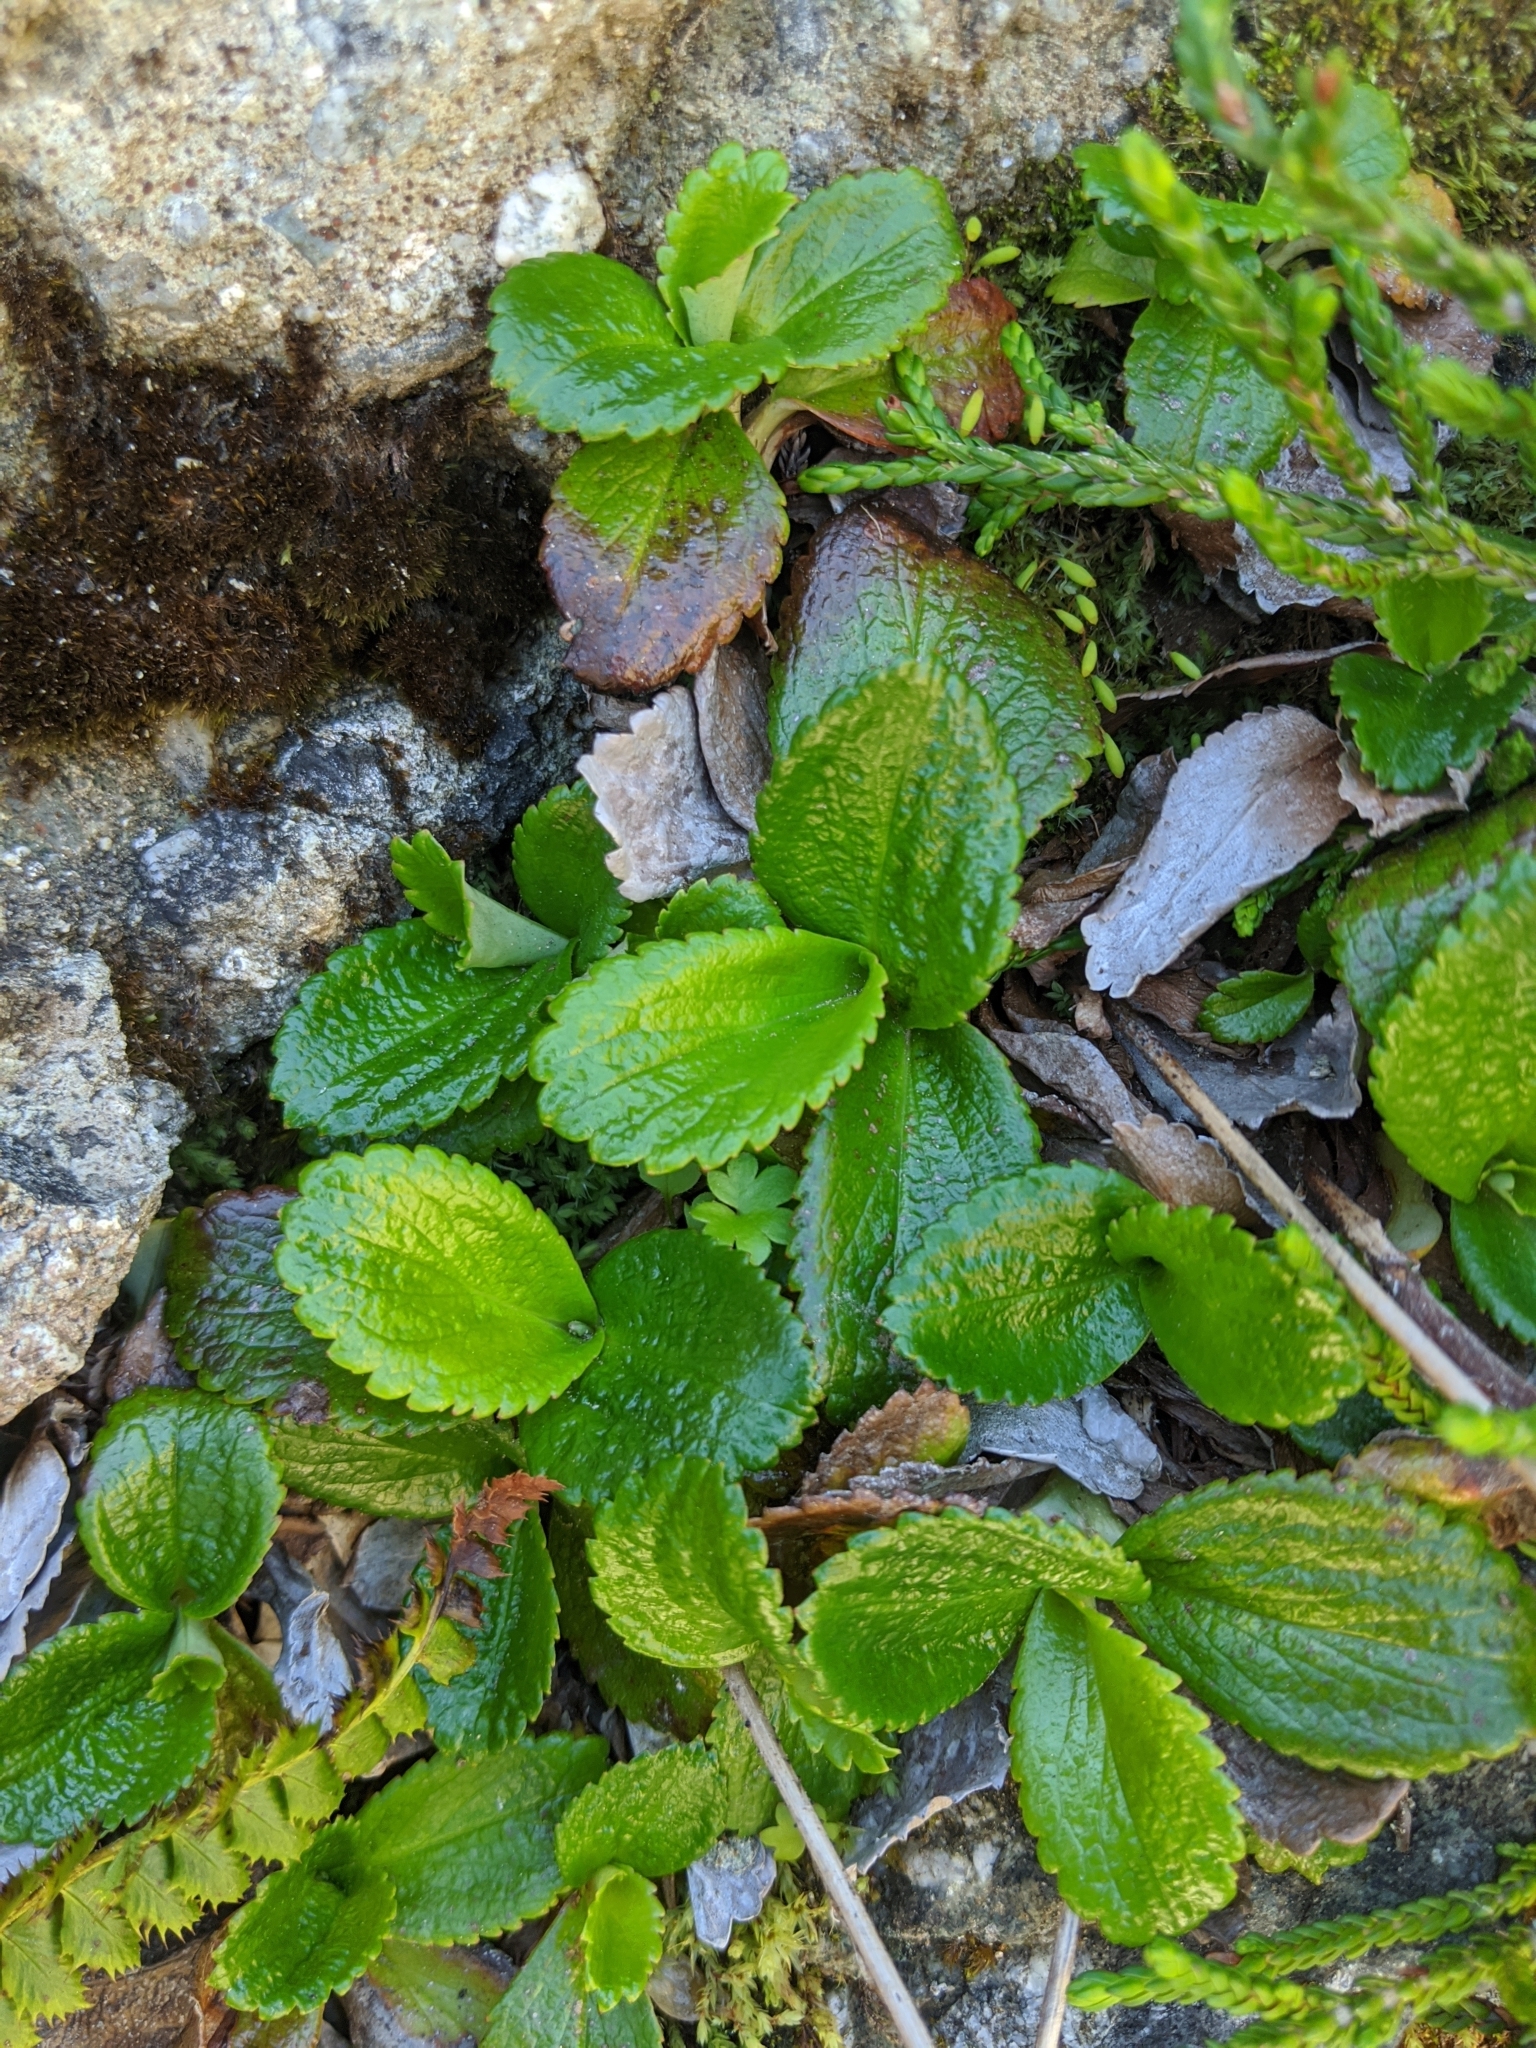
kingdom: Plantae
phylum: Tracheophyta
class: Magnoliopsida
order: Saxifragales
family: Saxifragaceae
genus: Leptarrhena
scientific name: Leptarrhena pyrolifolia
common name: Leatherleaf-saxifrage
